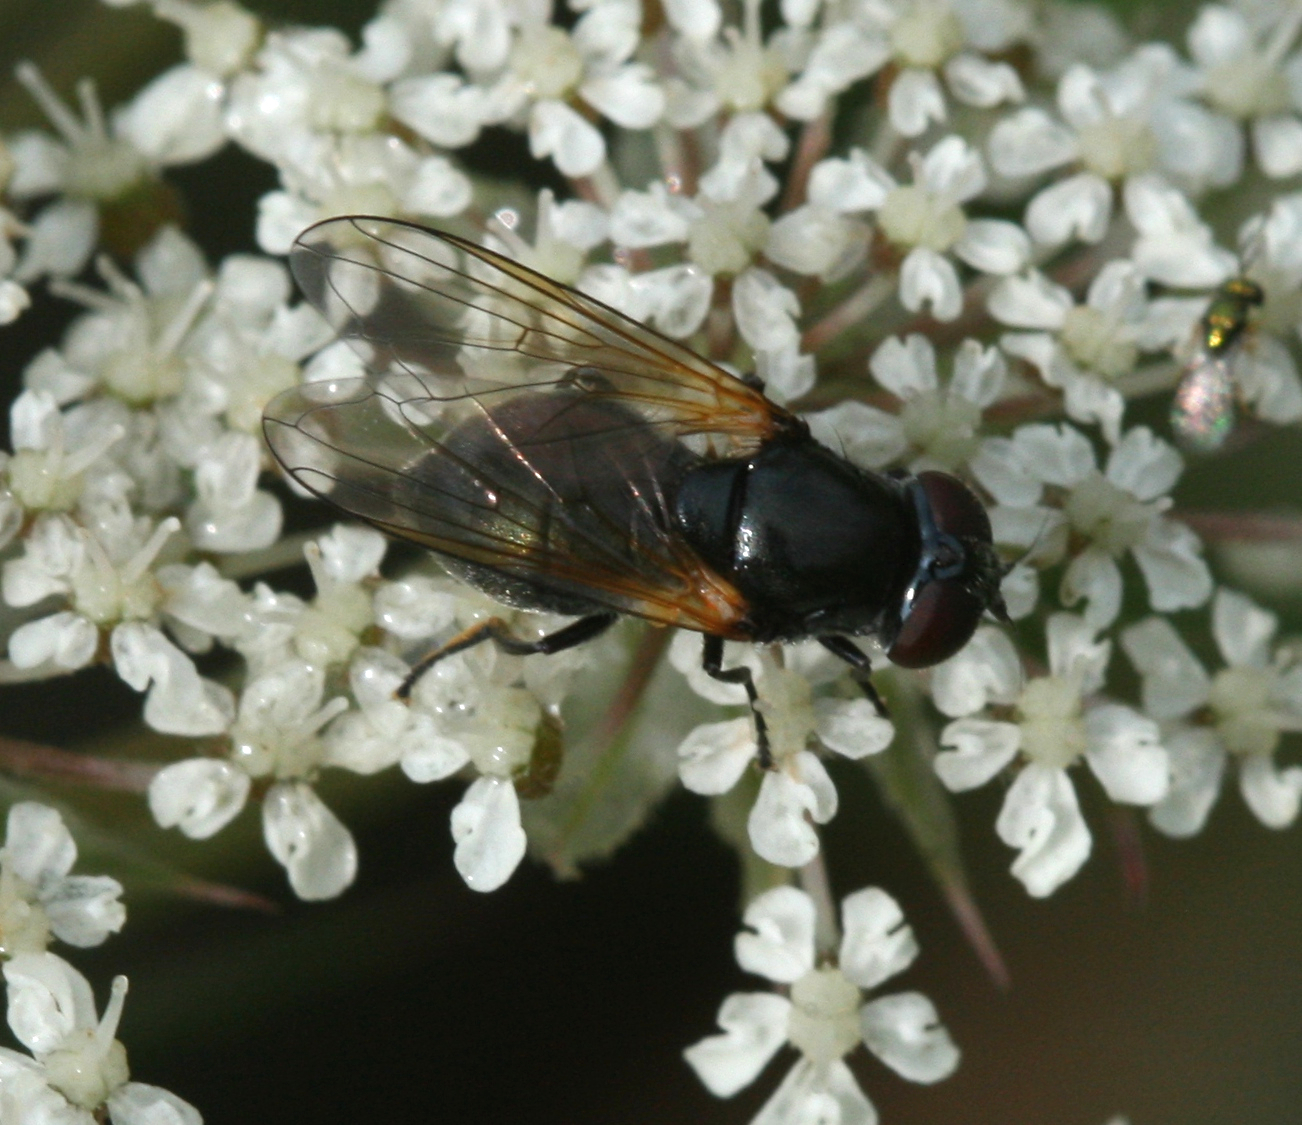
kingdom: Animalia
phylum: Arthropoda
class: Insecta
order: Diptera
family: Syrphidae
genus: Cheilosia
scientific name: Cheilosia impressa
